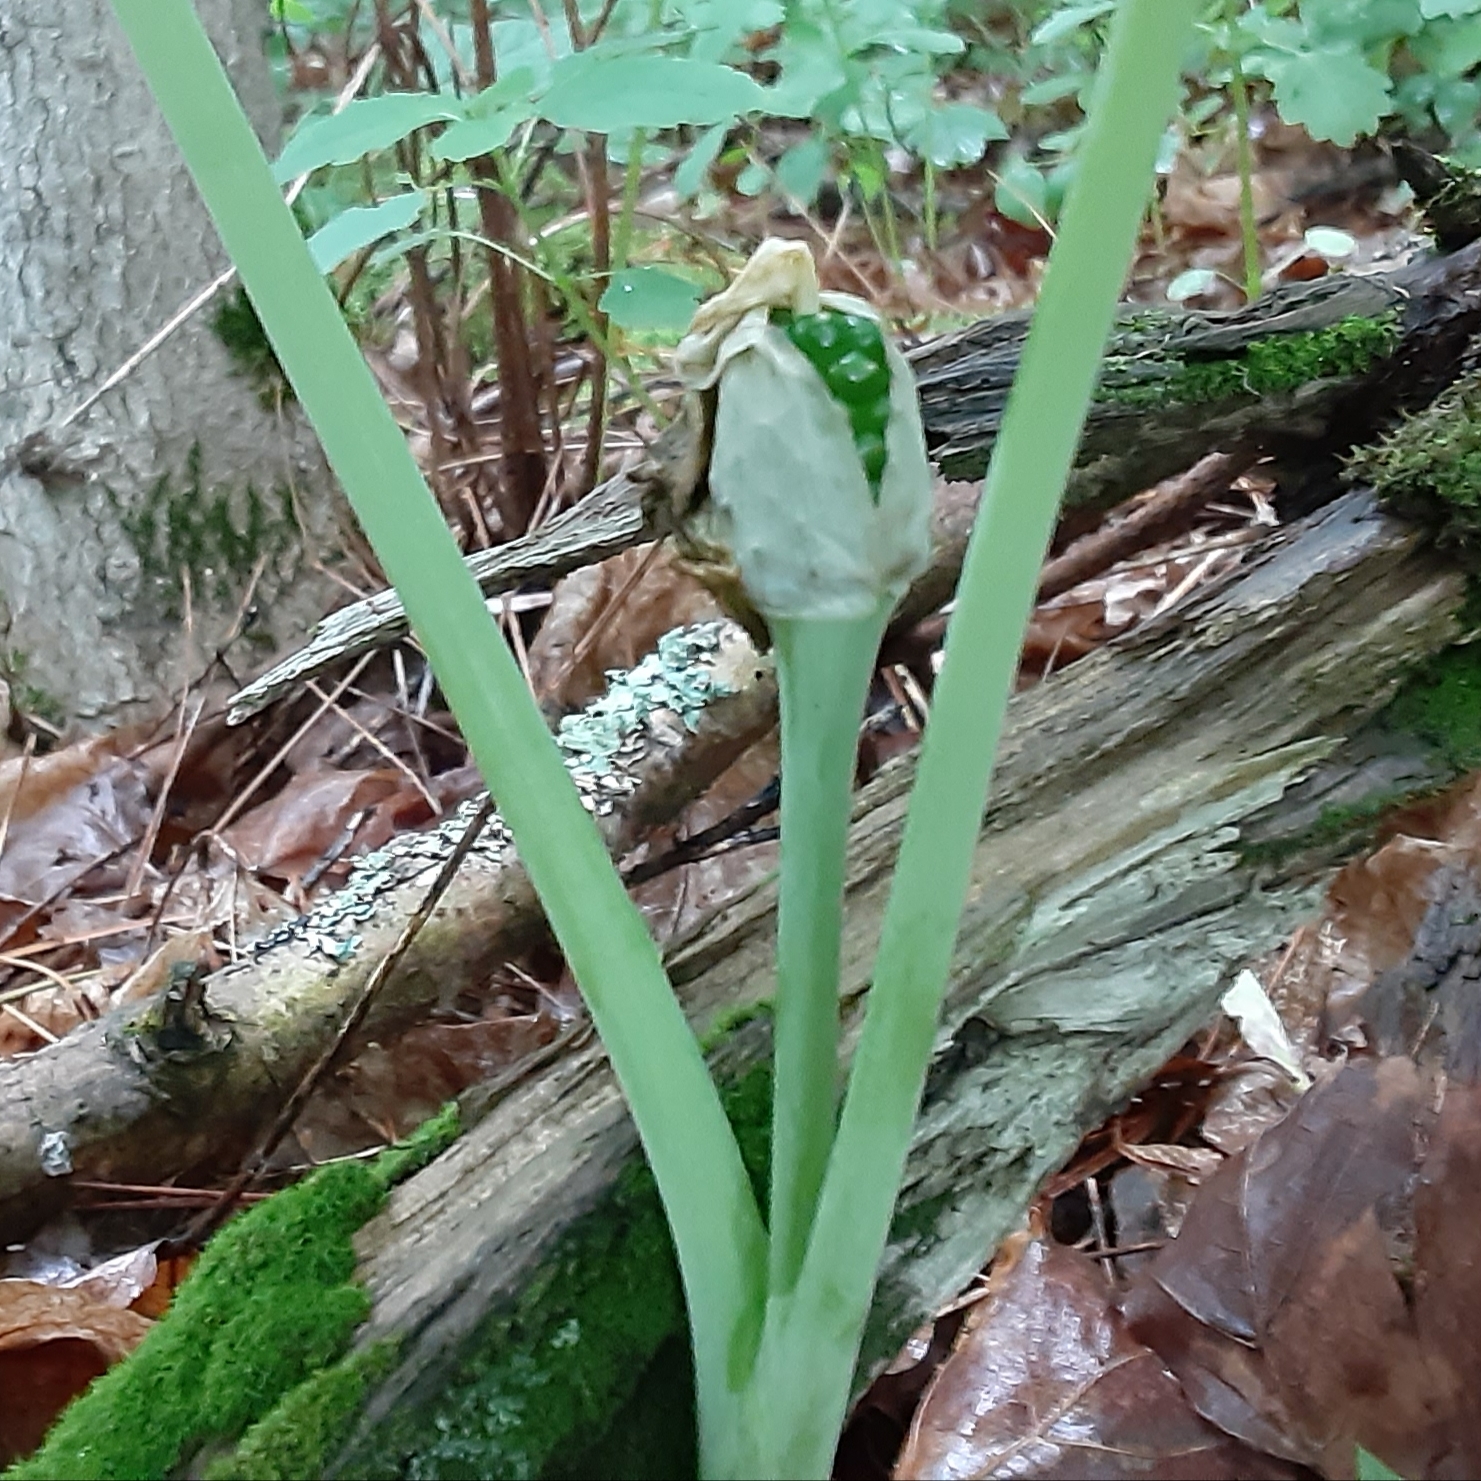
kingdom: Plantae
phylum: Tracheophyta
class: Liliopsida
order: Alismatales
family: Araceae
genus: Arisaema
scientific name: Arisaema triphyllum
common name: Jack-in-the-pulpit
